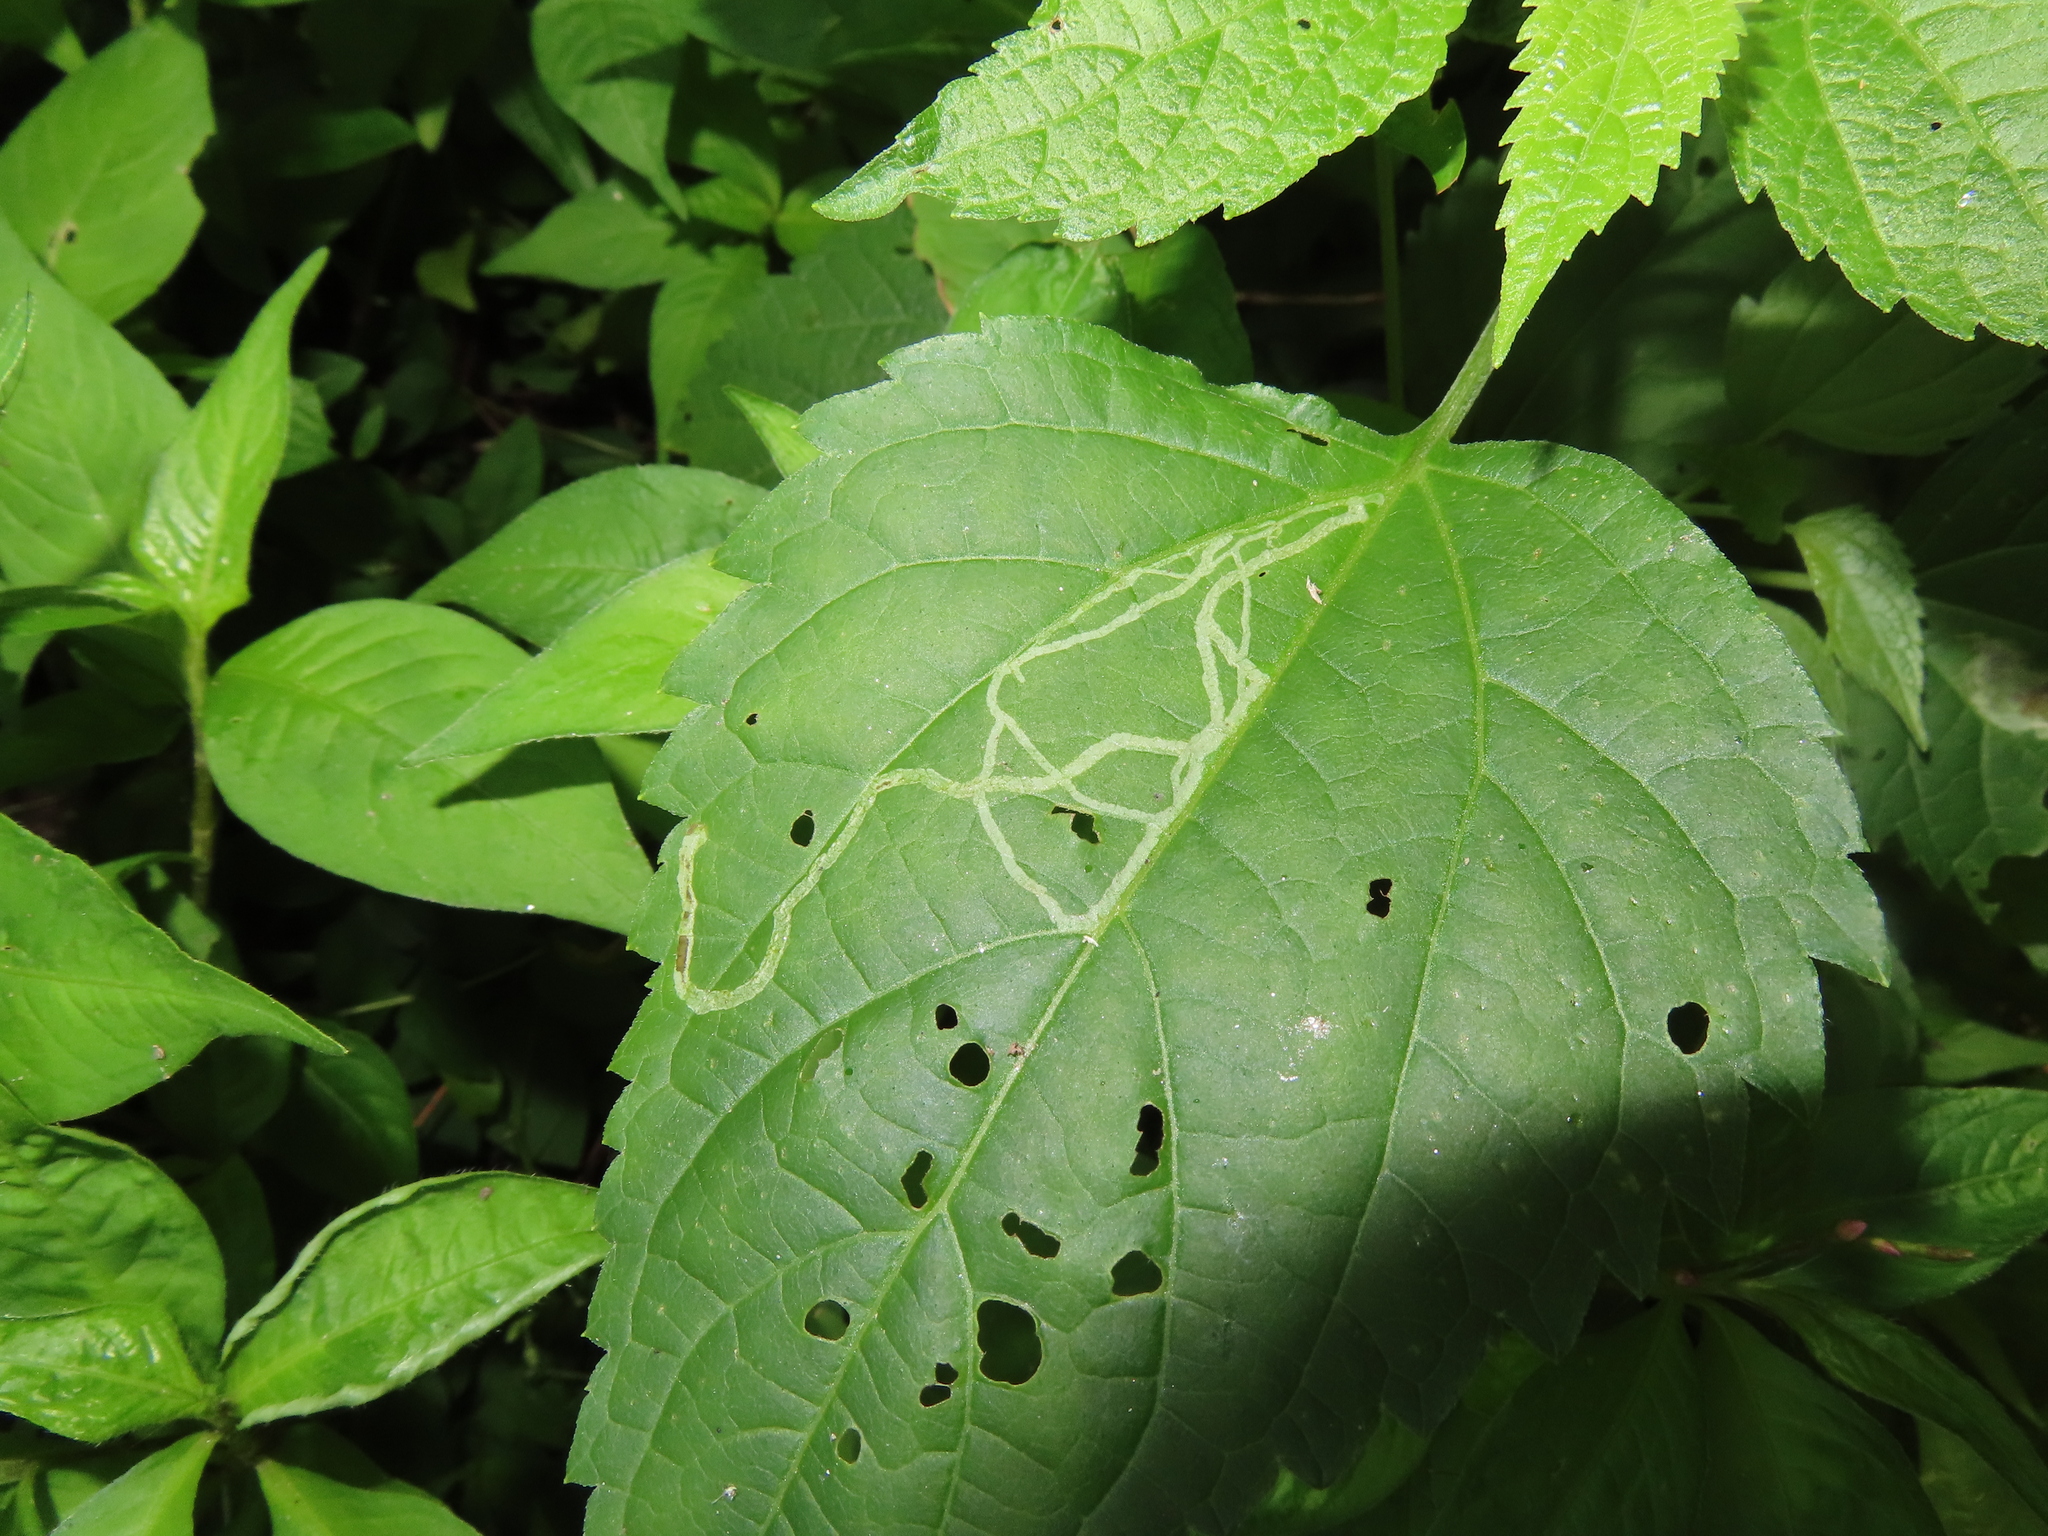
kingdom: Plantae
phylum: Tracheophyta
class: Magnoliopsida
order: Asterales
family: Asteraceae
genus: Ageratina
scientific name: Ageratina altissima
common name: White snakeroot
